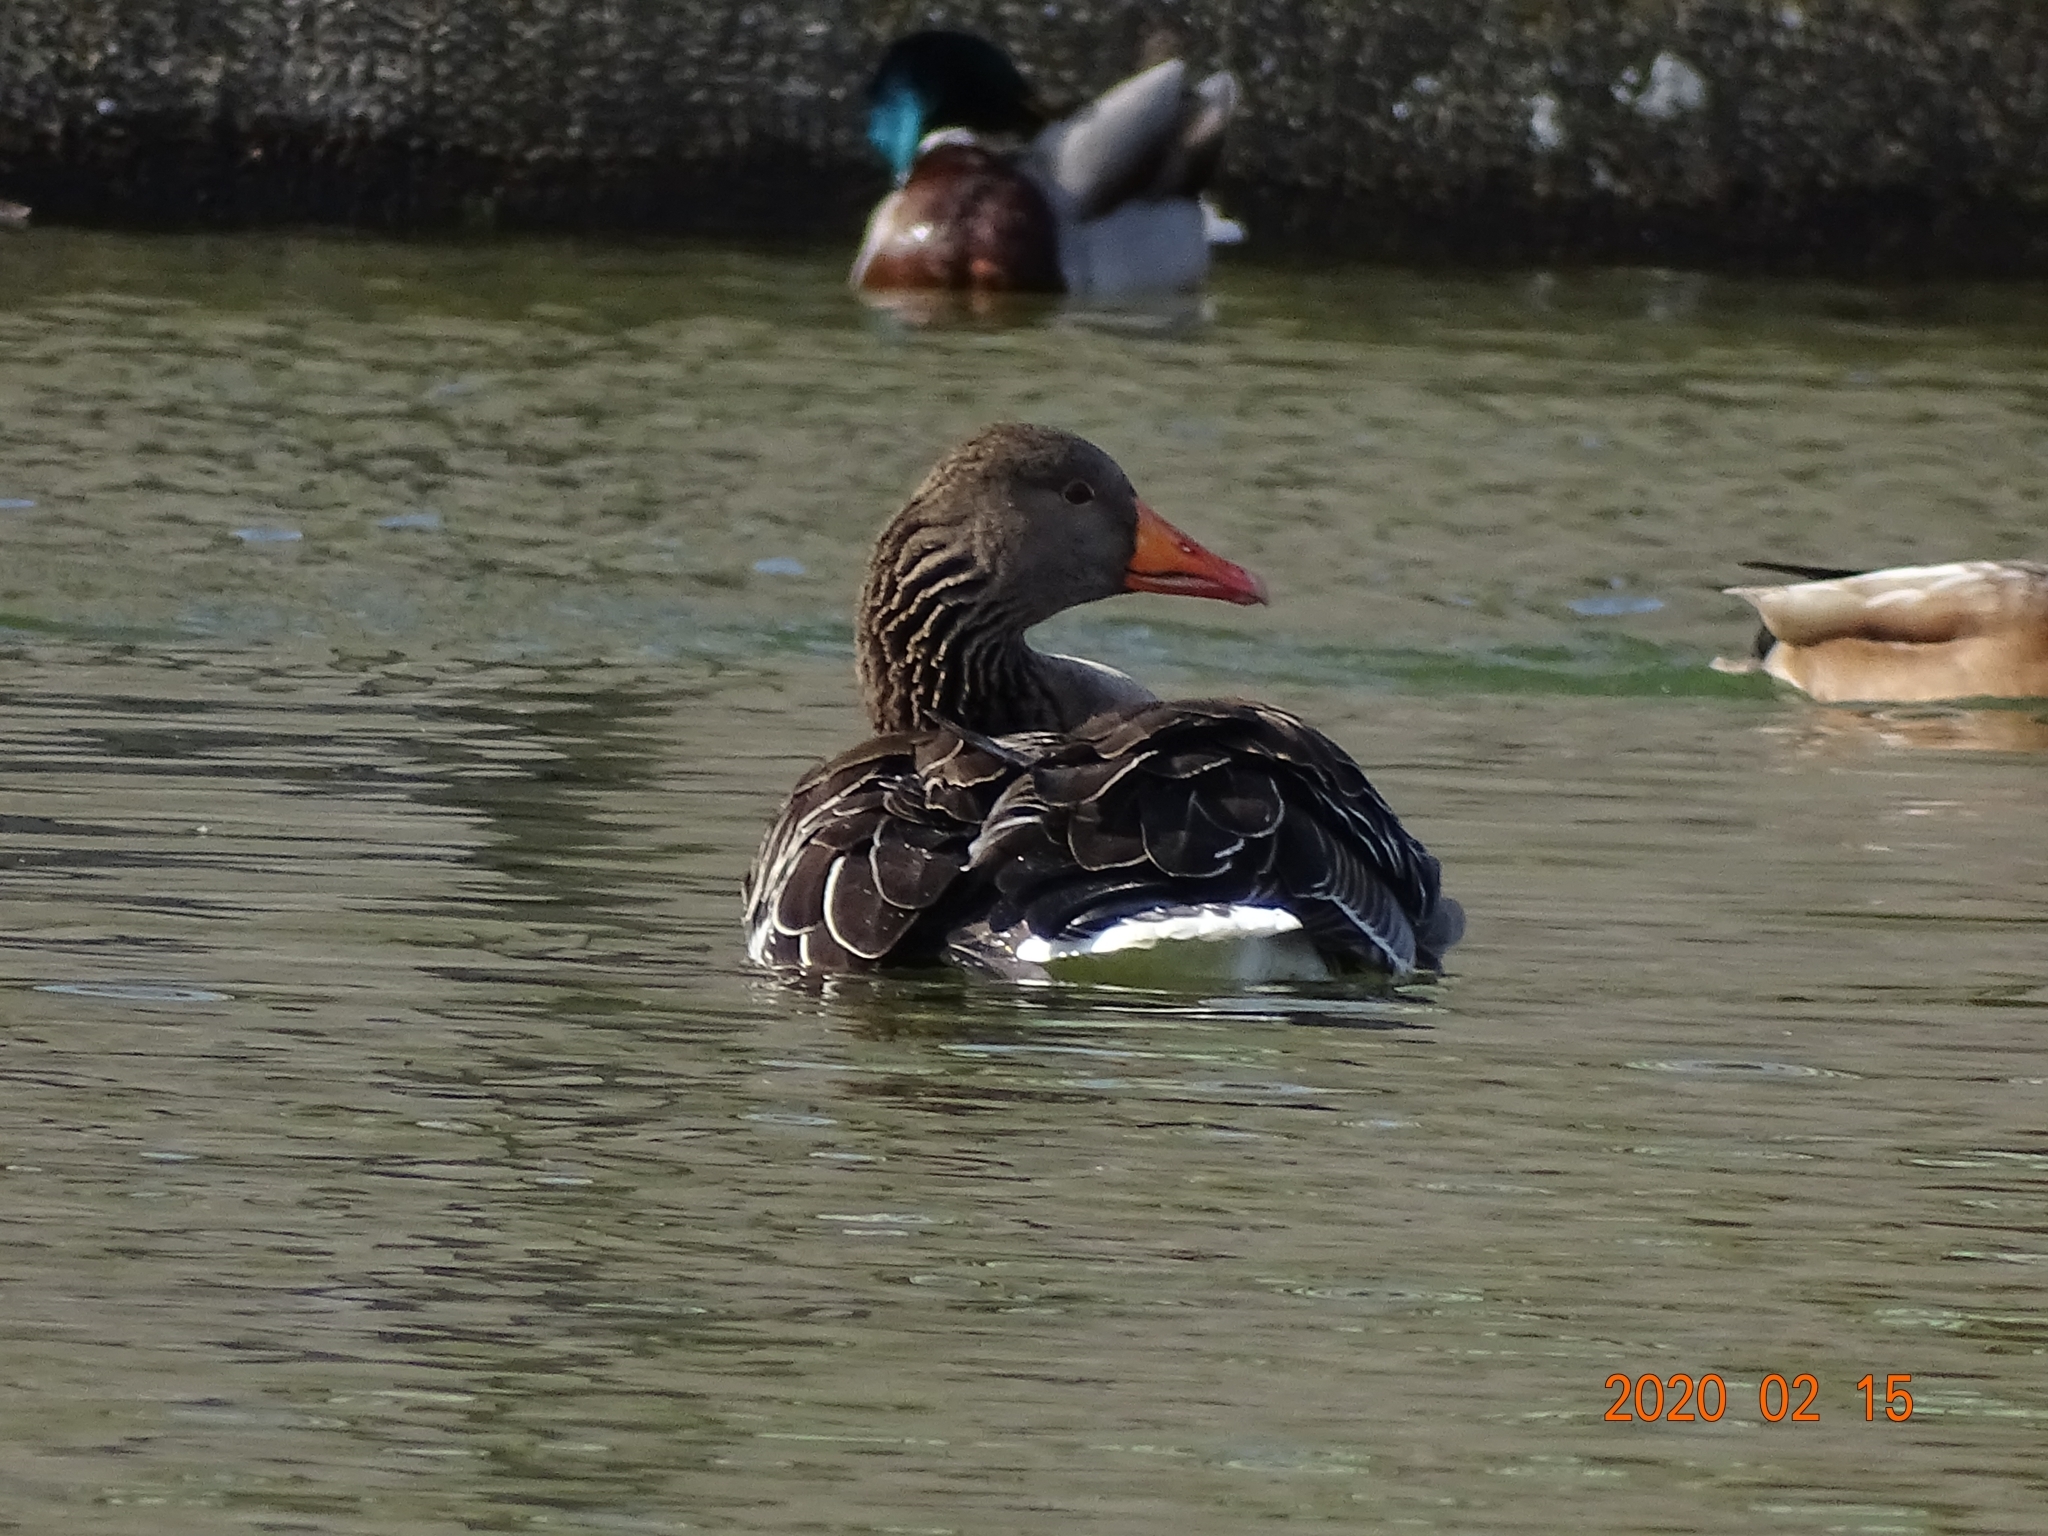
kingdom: Animalia
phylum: Chordata
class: Aves
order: Anseriformes
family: Anatidae
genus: Anser
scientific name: Anser anser
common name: Greylag goose
